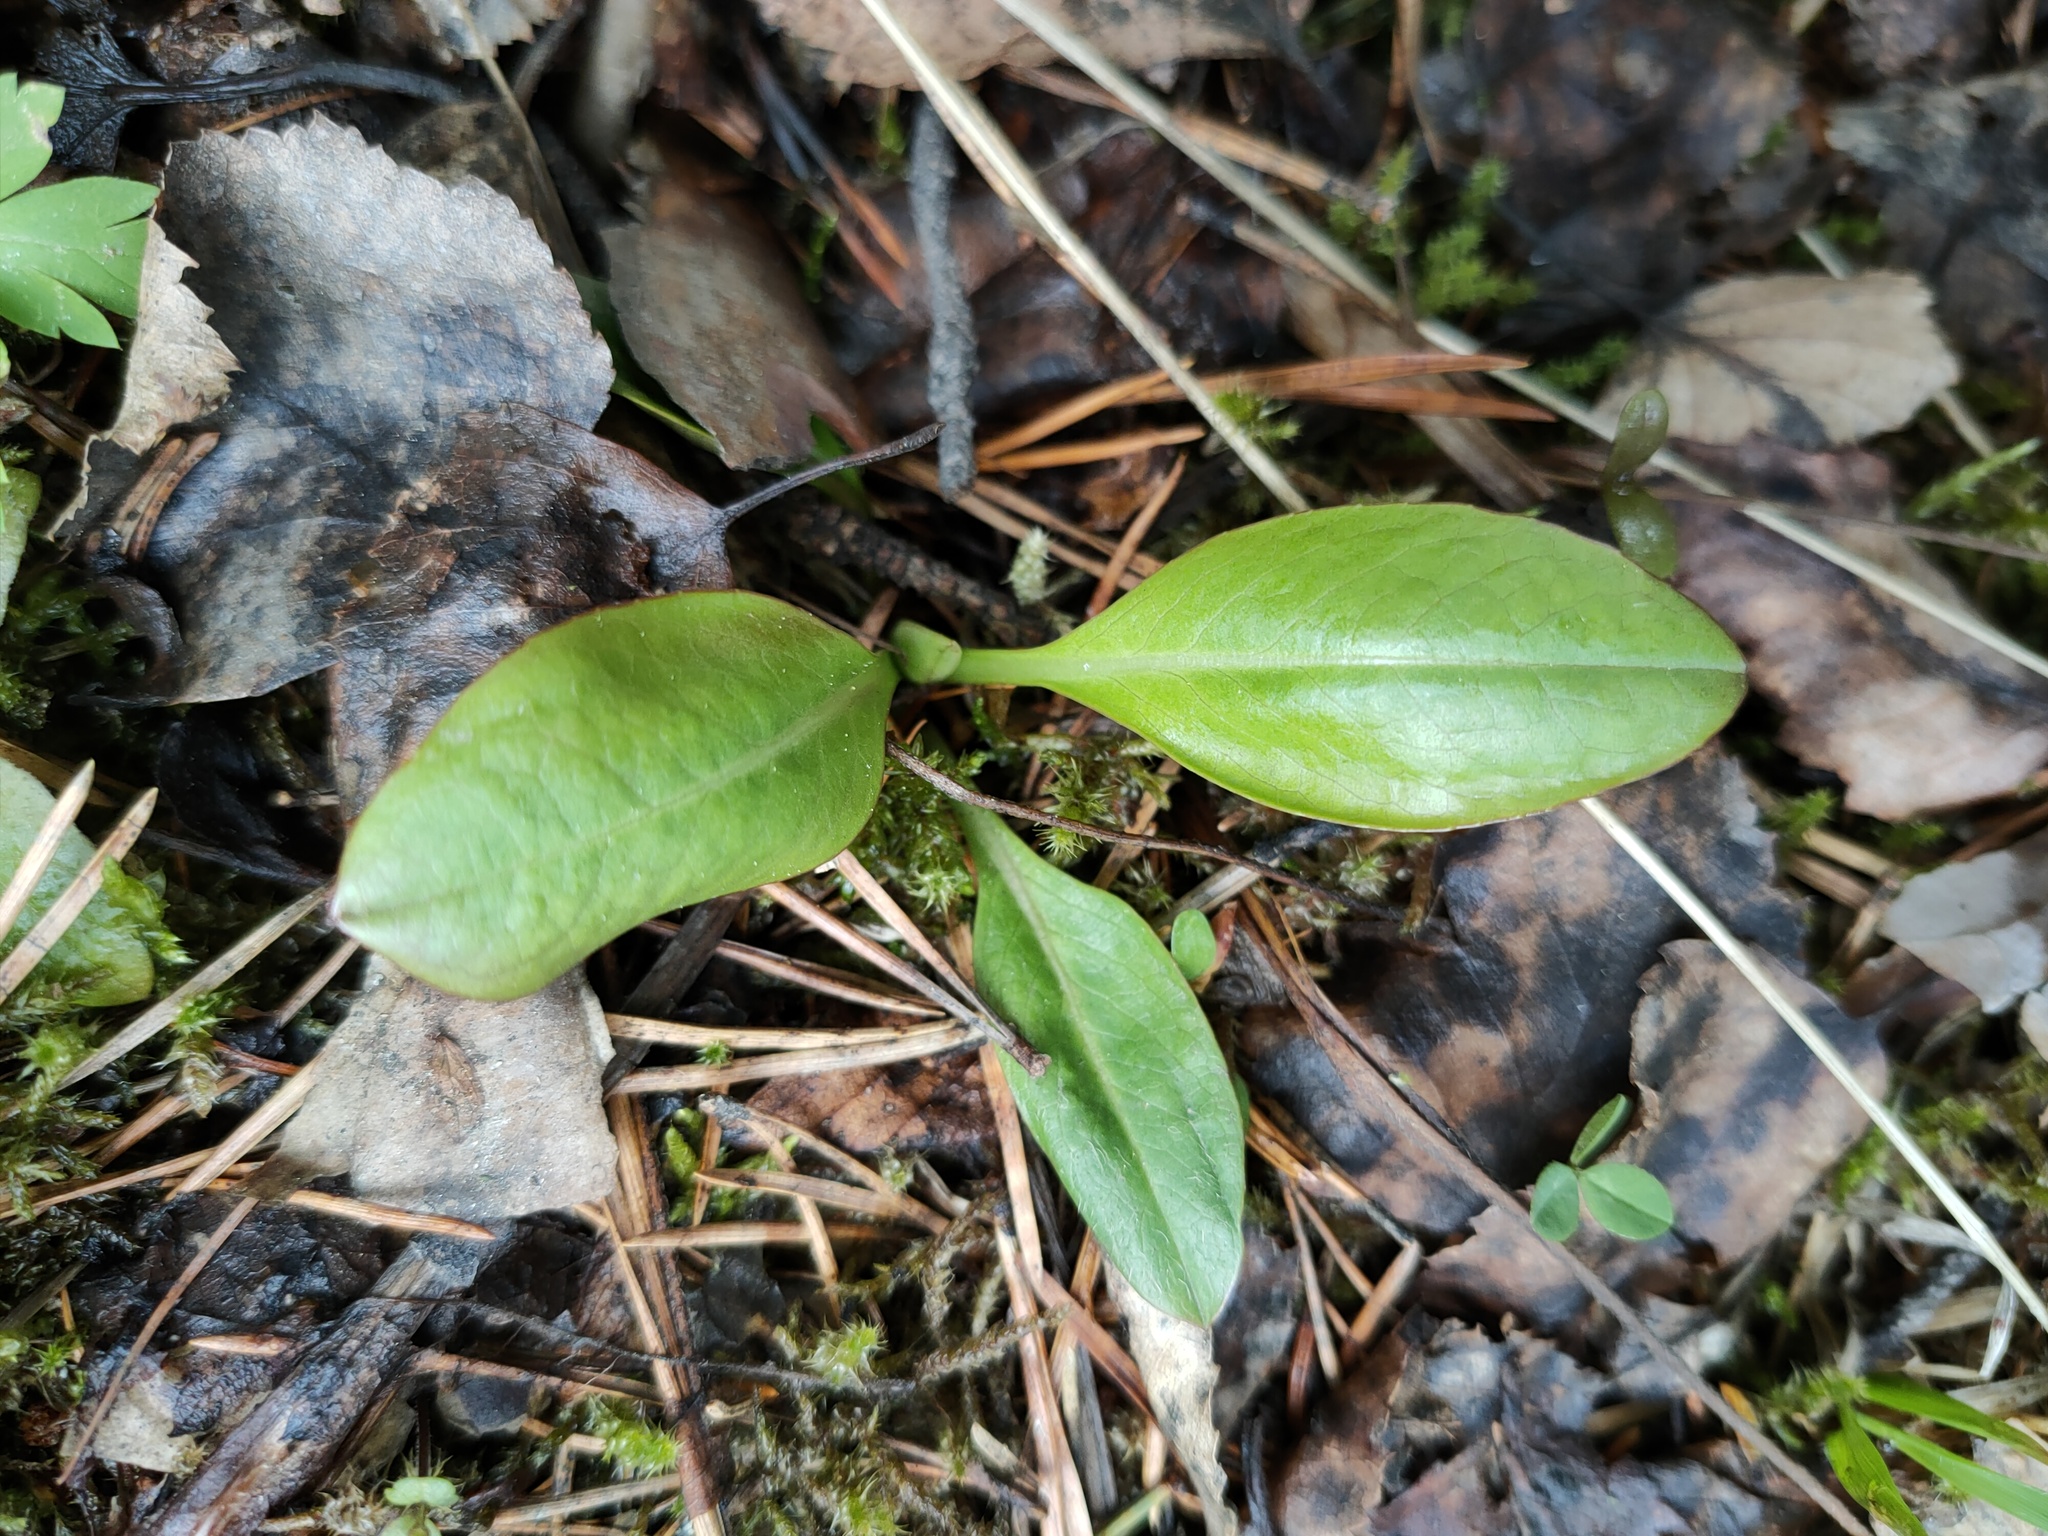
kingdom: Plantae
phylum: Tracheophyta
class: Magnoliopsida
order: Dipsacales
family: Caprifoliaceae
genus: Succisa
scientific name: Succisa pratensis
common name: Devil's-bit
